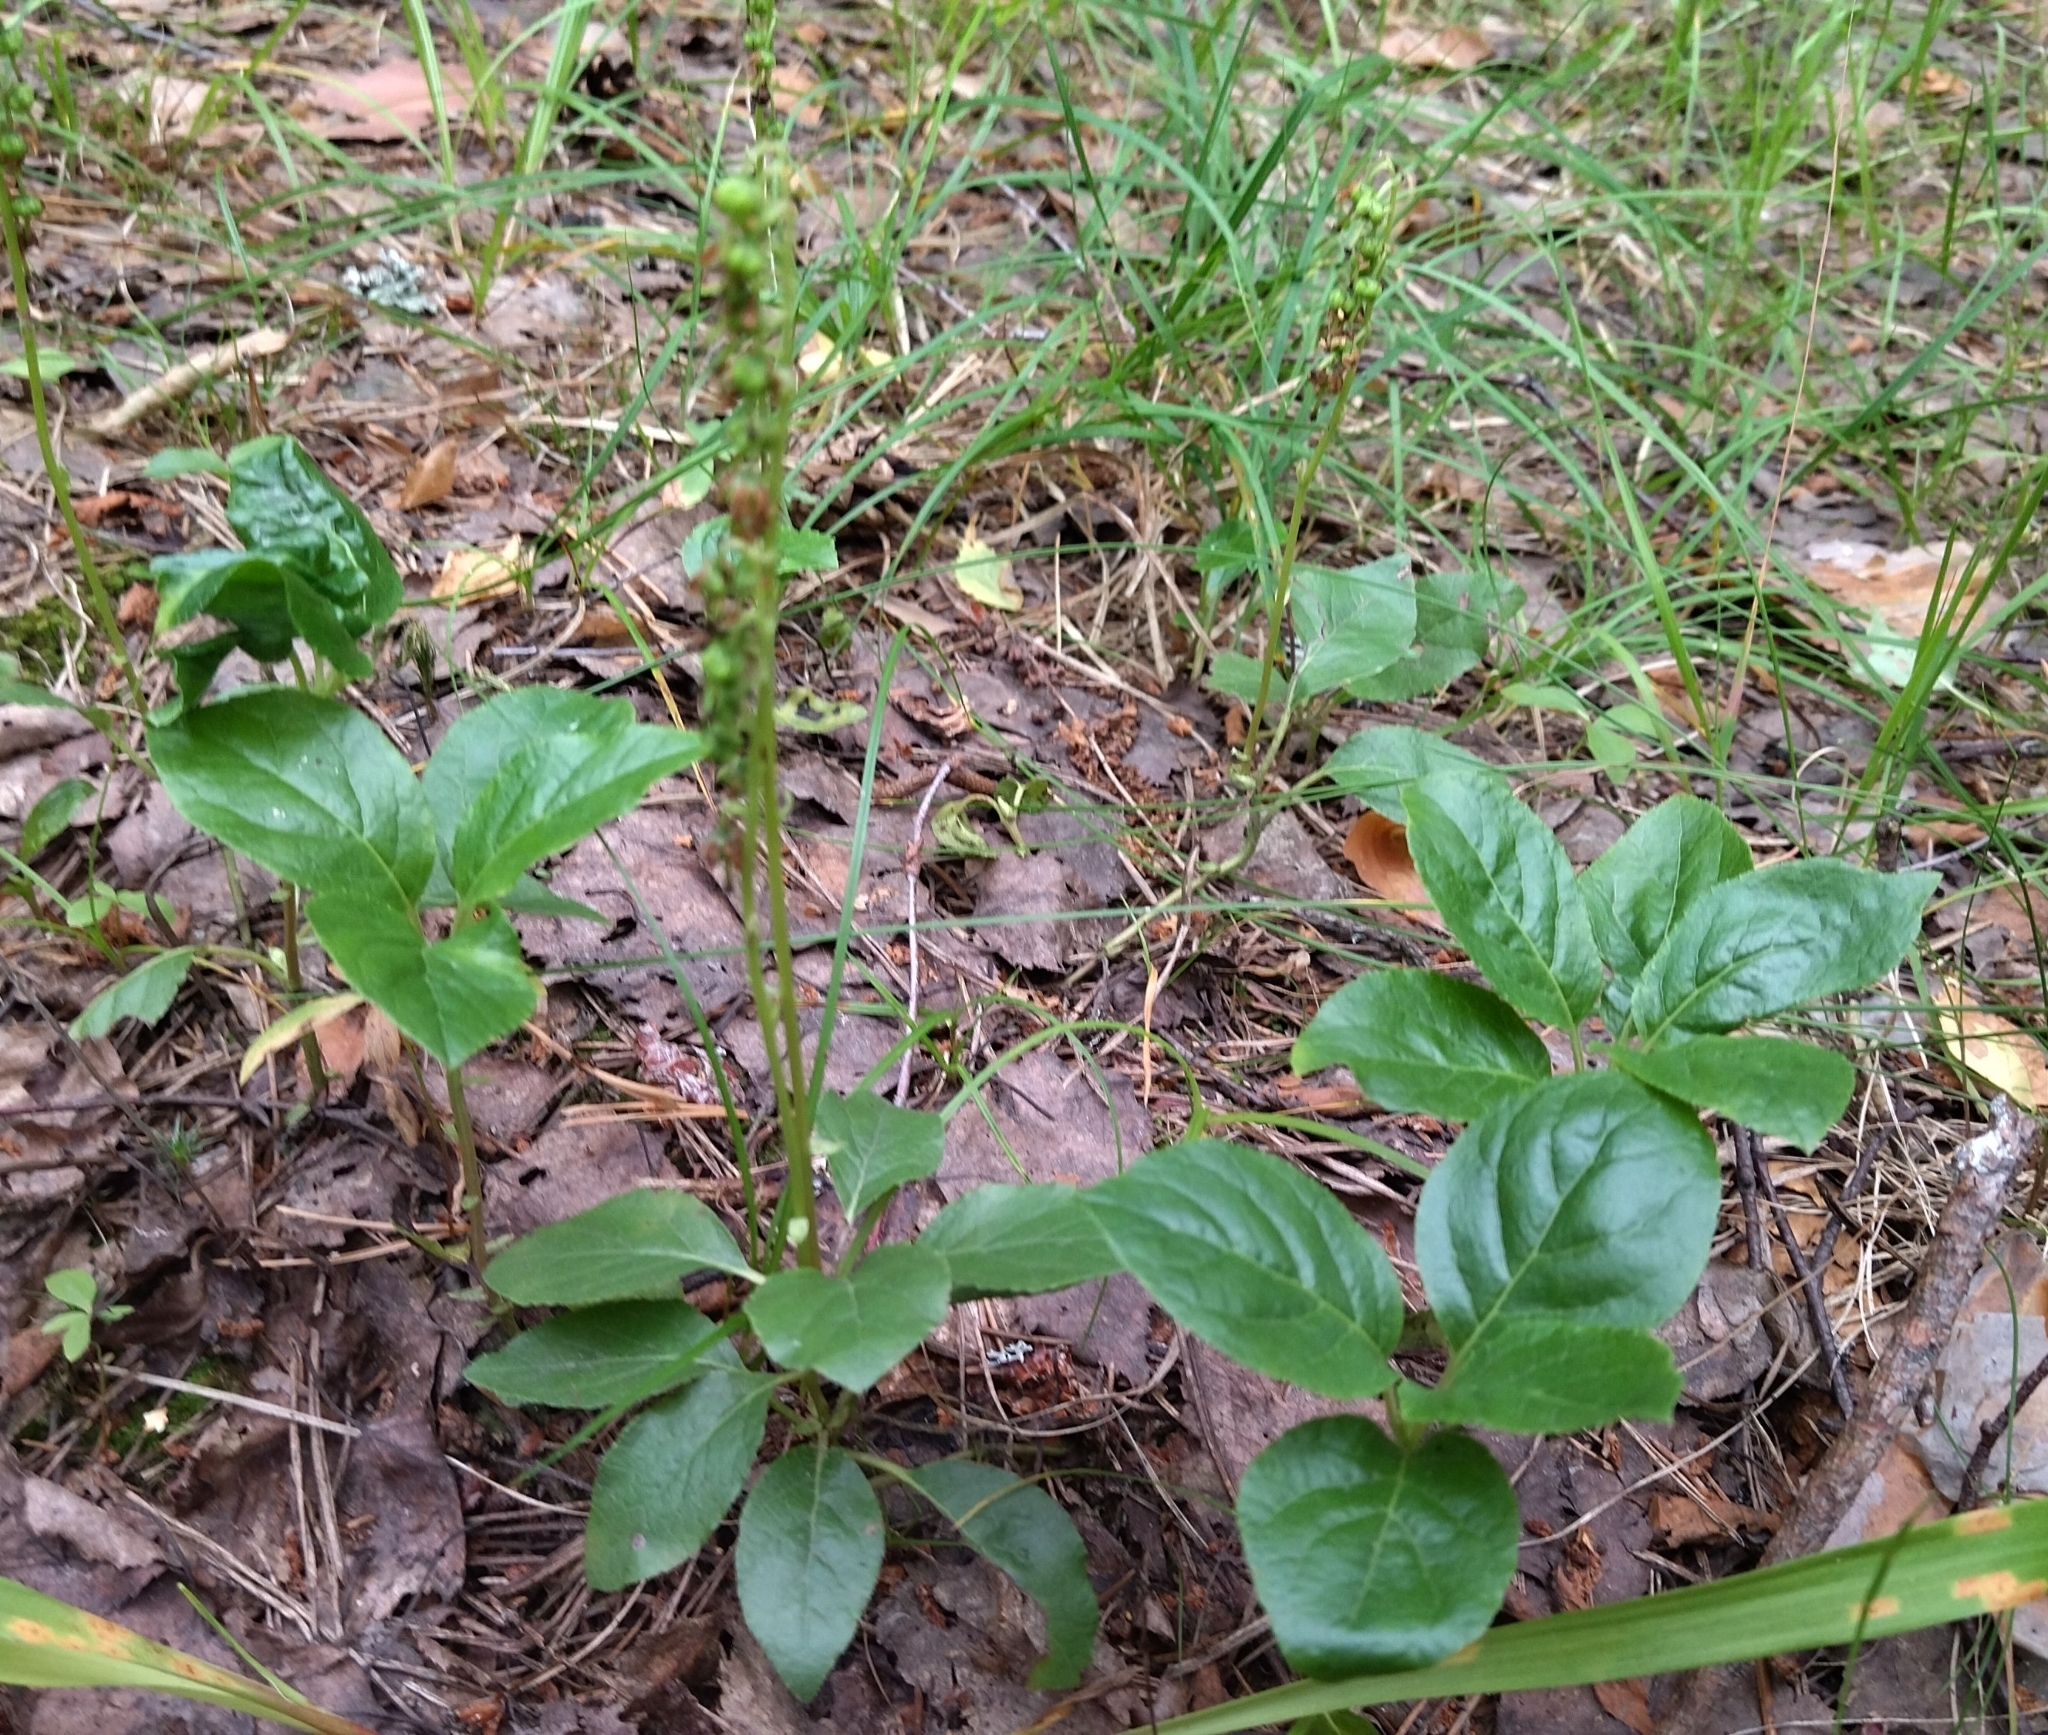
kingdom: Plantae
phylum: Tracheophyta
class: Magnoliopsida
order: Ericales
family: Ericaceae
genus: Orthilia
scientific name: Orthilia secunda
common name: One-sided orthilia
